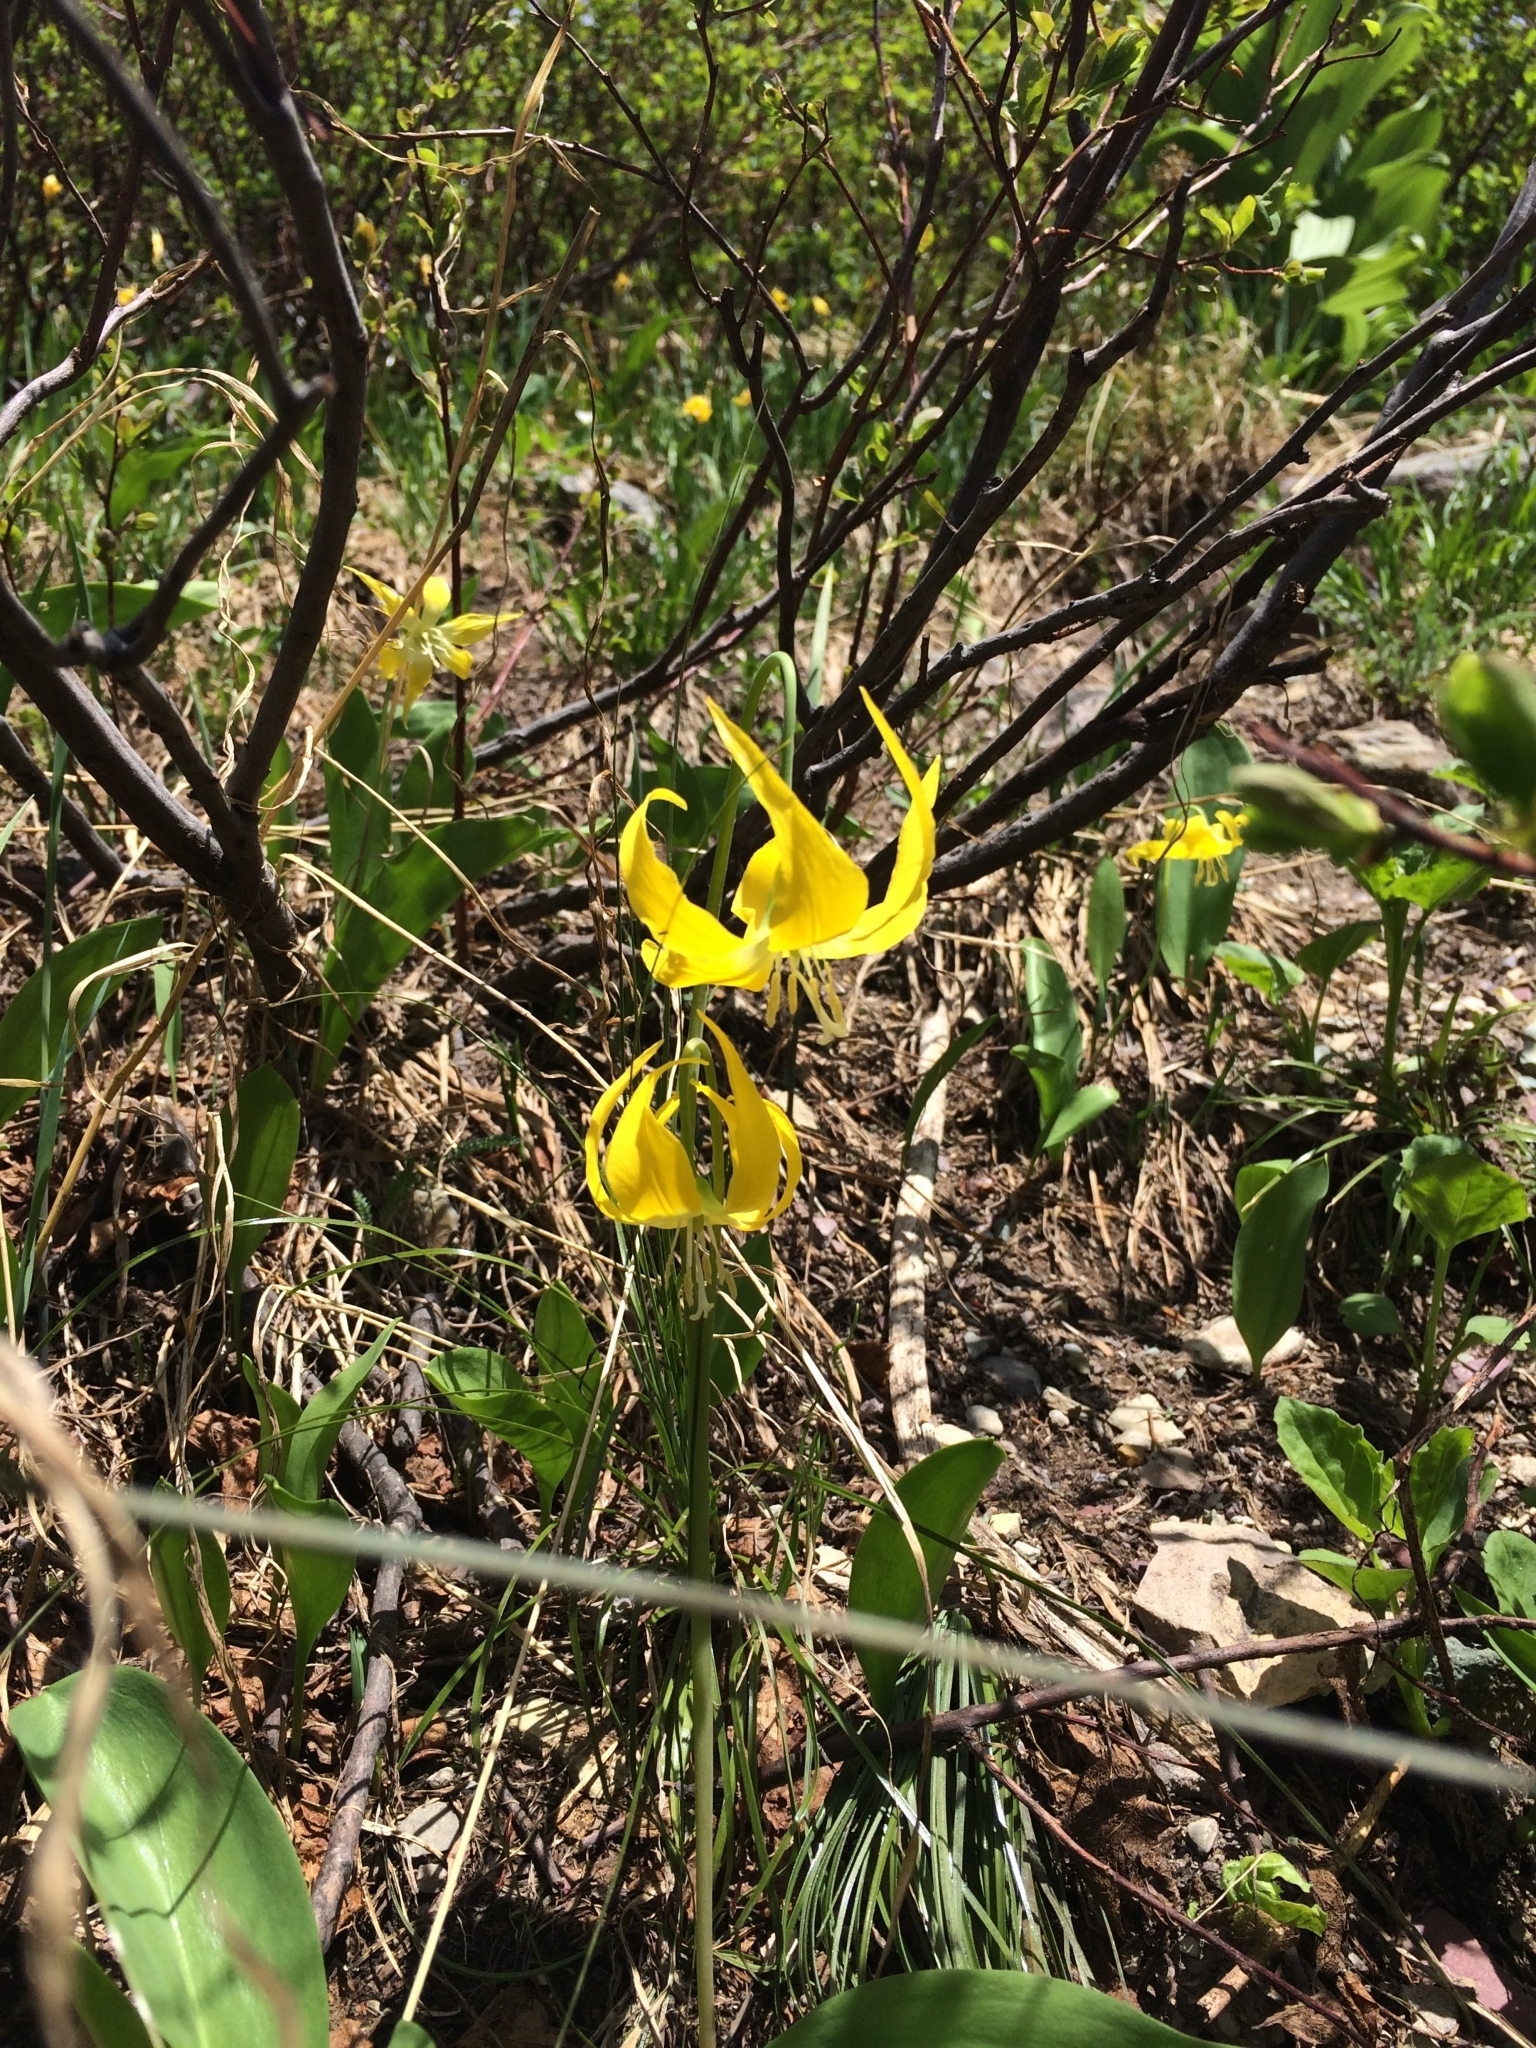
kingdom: Plantae
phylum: Tracheophyta
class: Liliopsida
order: Liliales
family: Liliaceae
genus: Erythronium
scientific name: Erythronium grandiflorum
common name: Avalanche-lily
